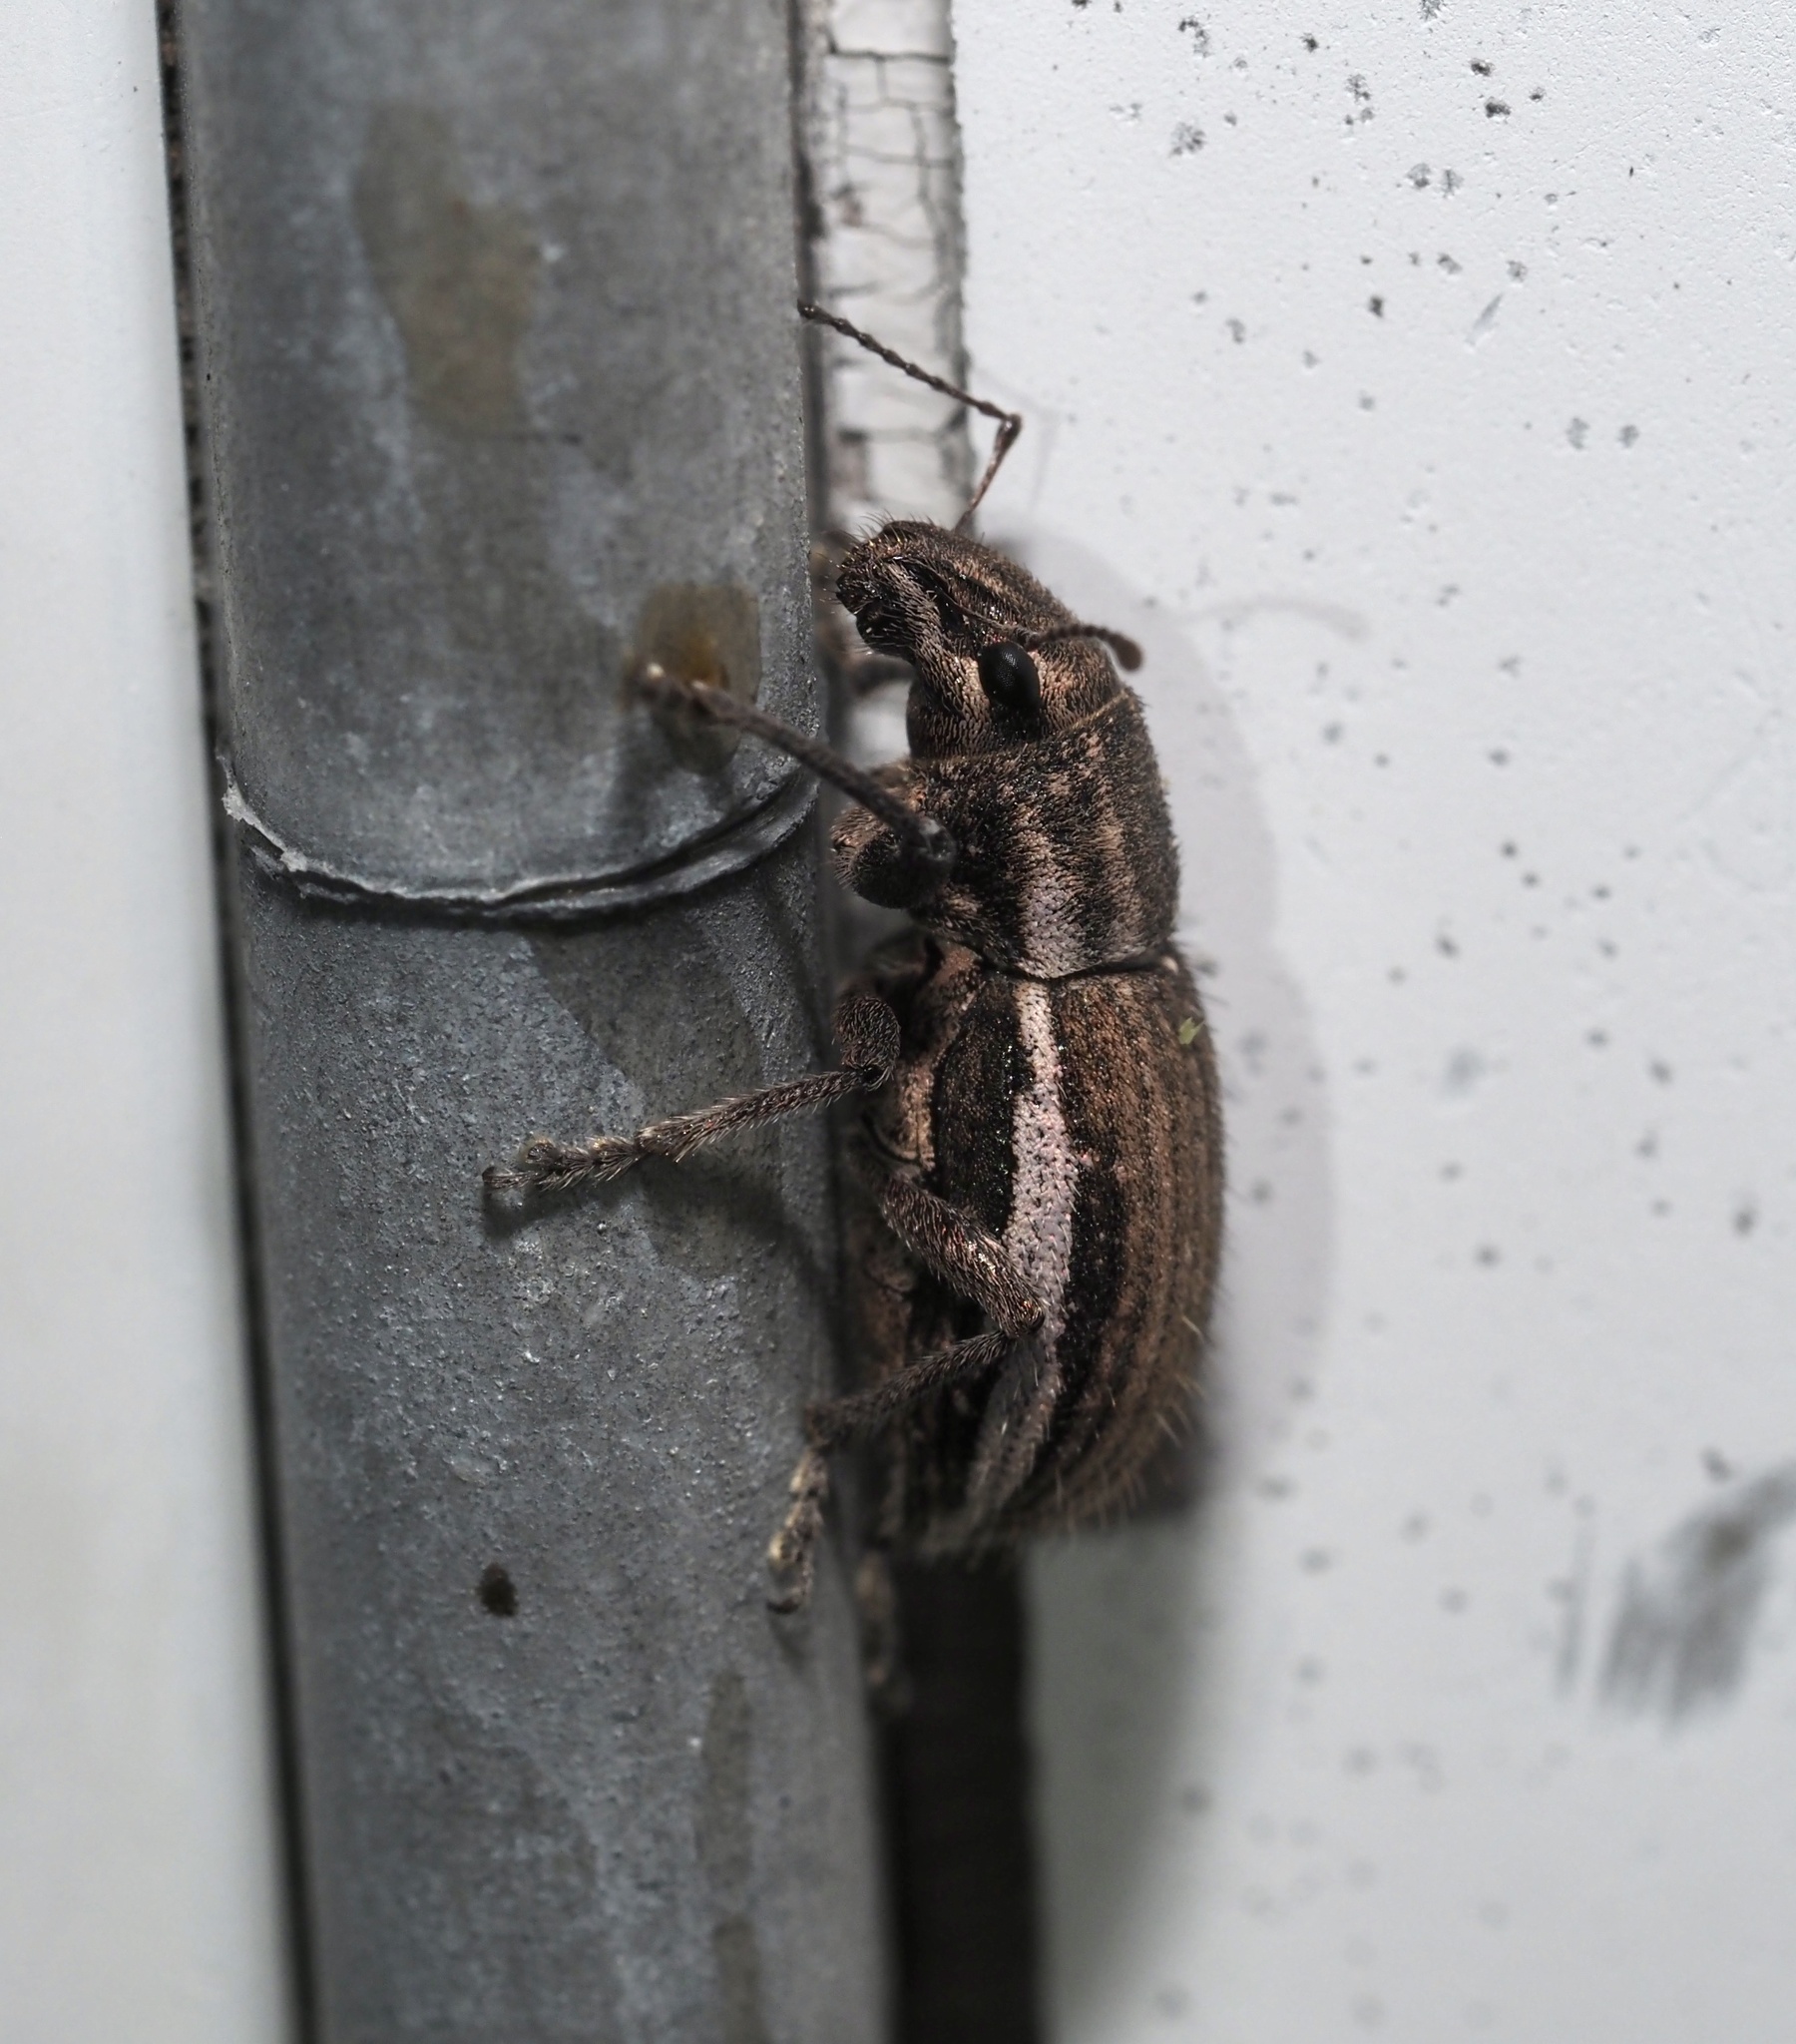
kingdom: Animalia
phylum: Arthropoda
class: Insecta
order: Coleoptera
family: Curculionidae
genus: Naupactus
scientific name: Naupactus leucoloma
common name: Whitefringed beetle
